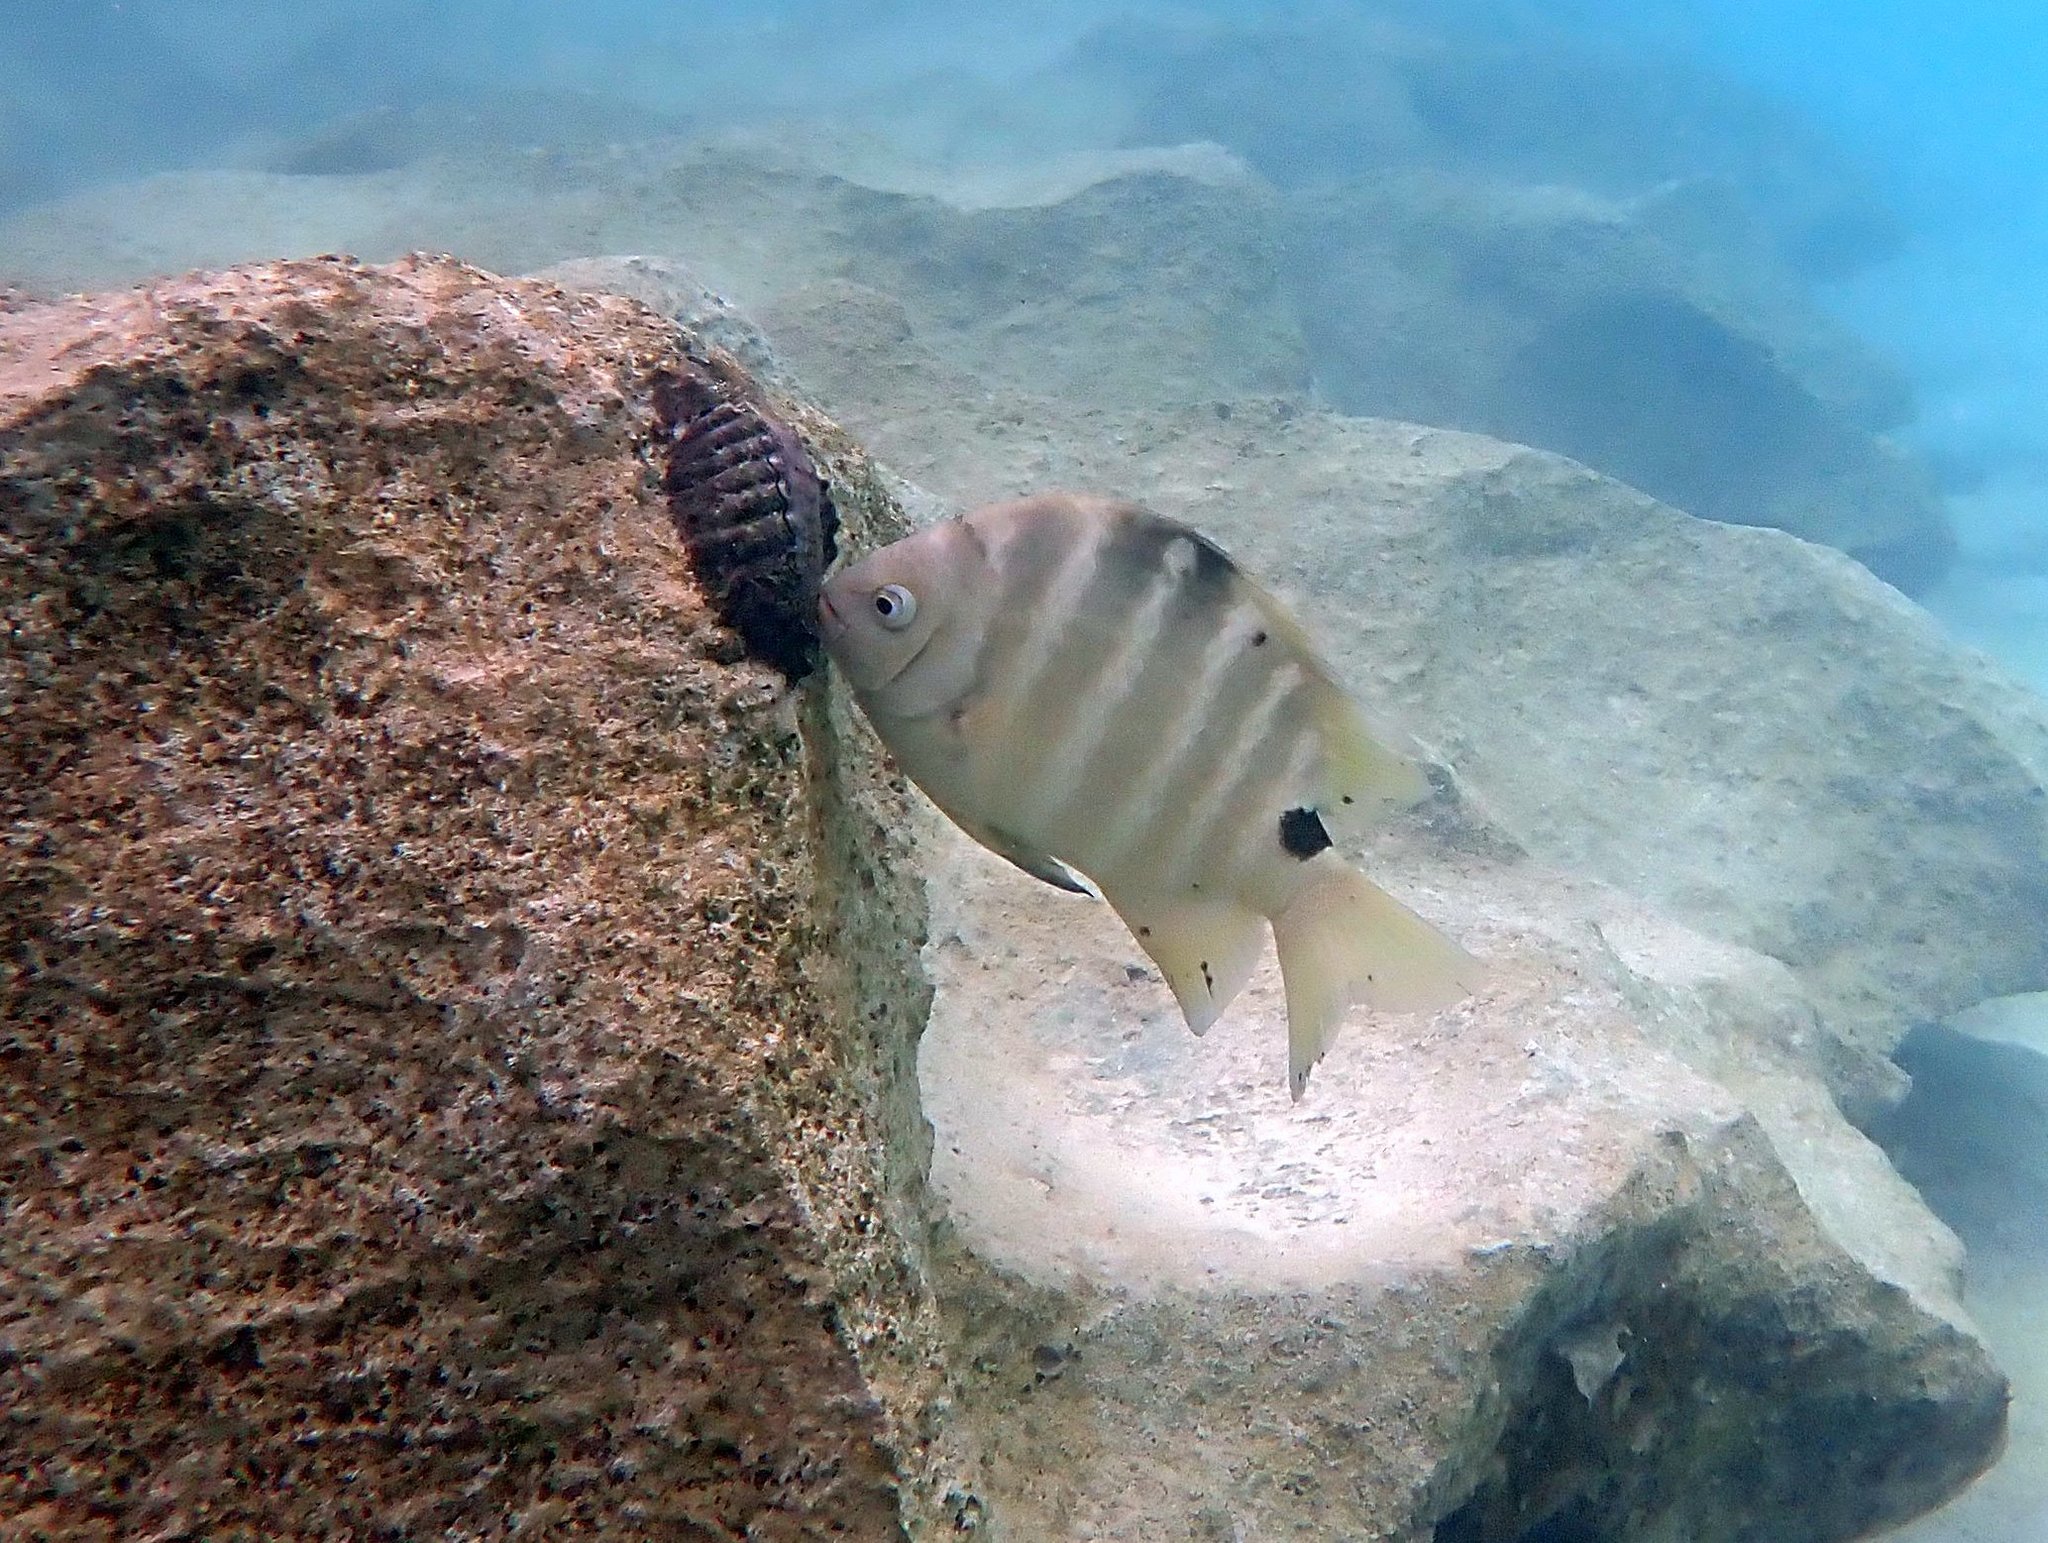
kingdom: Animalia
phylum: Chordata
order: Perciformes
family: Pomacentridae
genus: Abudefduf
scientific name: Abudefduf sordidus
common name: Blackspot sergeant
